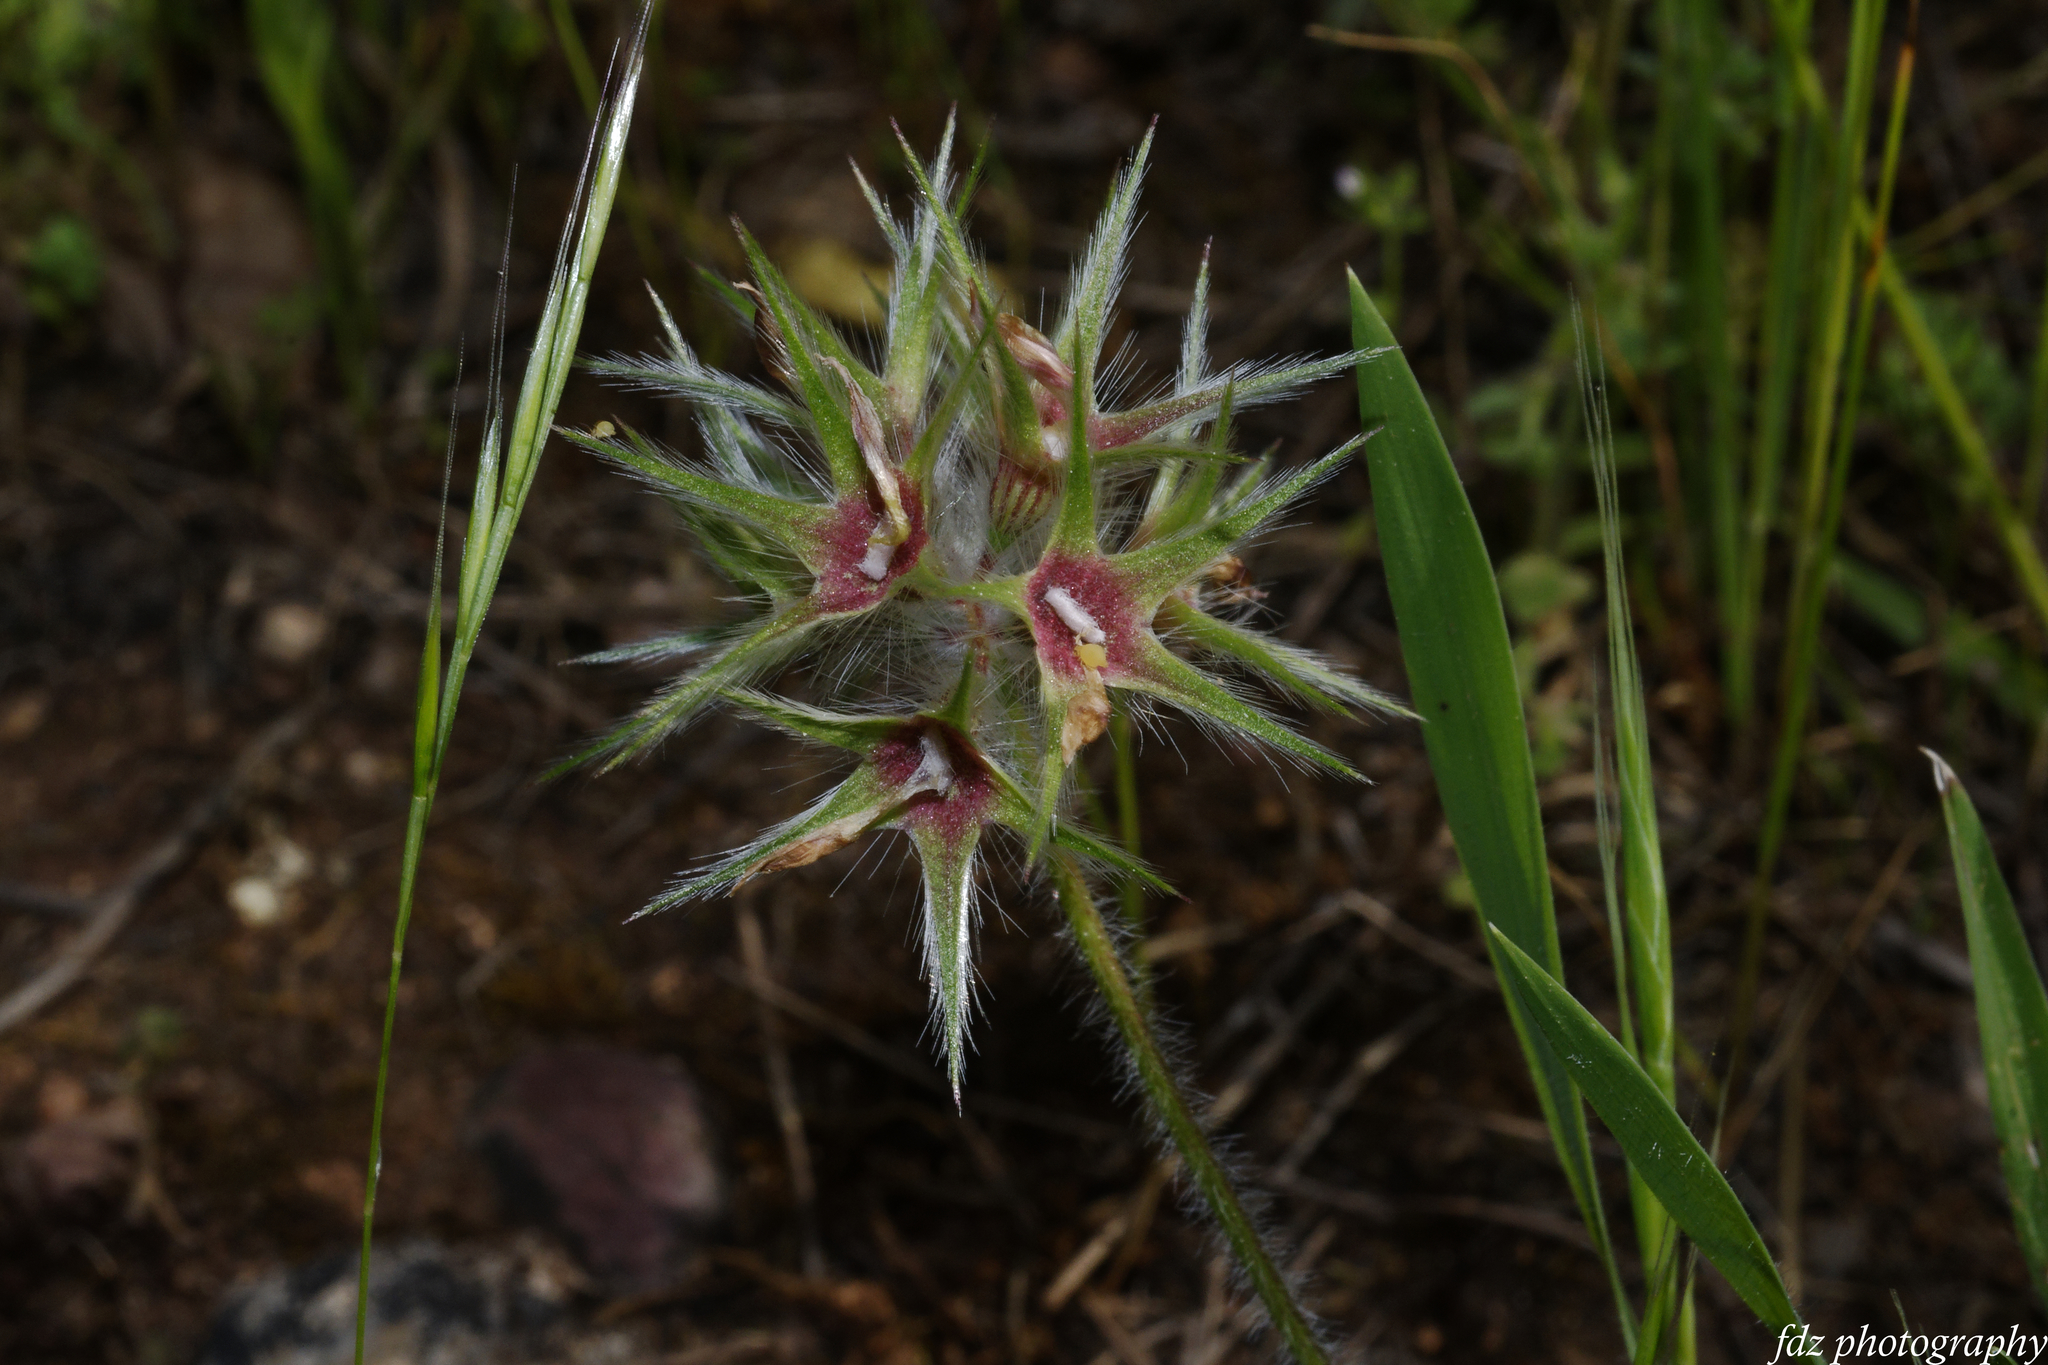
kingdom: Plantae
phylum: Tracheophyta
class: Magnoliopsida
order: Fabales
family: Fabaceae
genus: Trifolium
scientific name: Trifolium stellatum
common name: Starry clover
